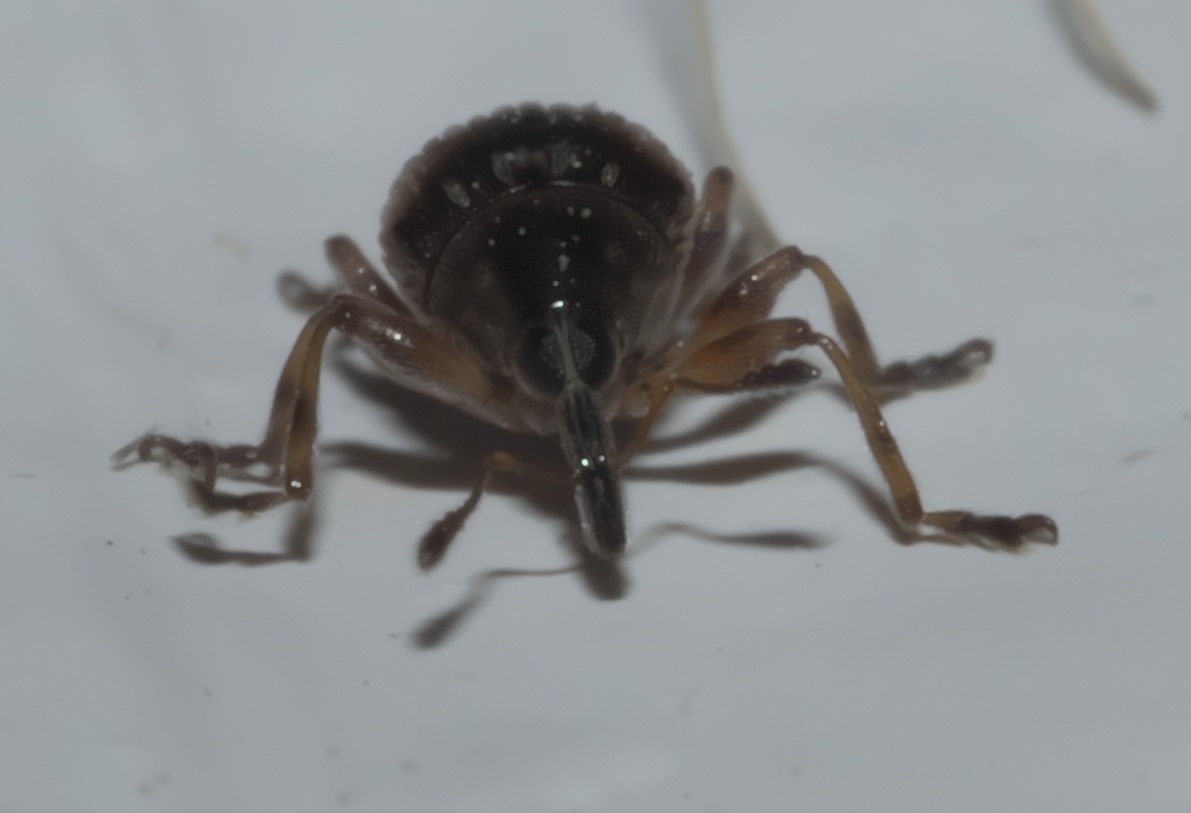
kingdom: Animalia
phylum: Arthropoda
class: Insecta
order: Coleoptera
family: Brentidae
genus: Nanodactylus
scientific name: Nanodactylus
